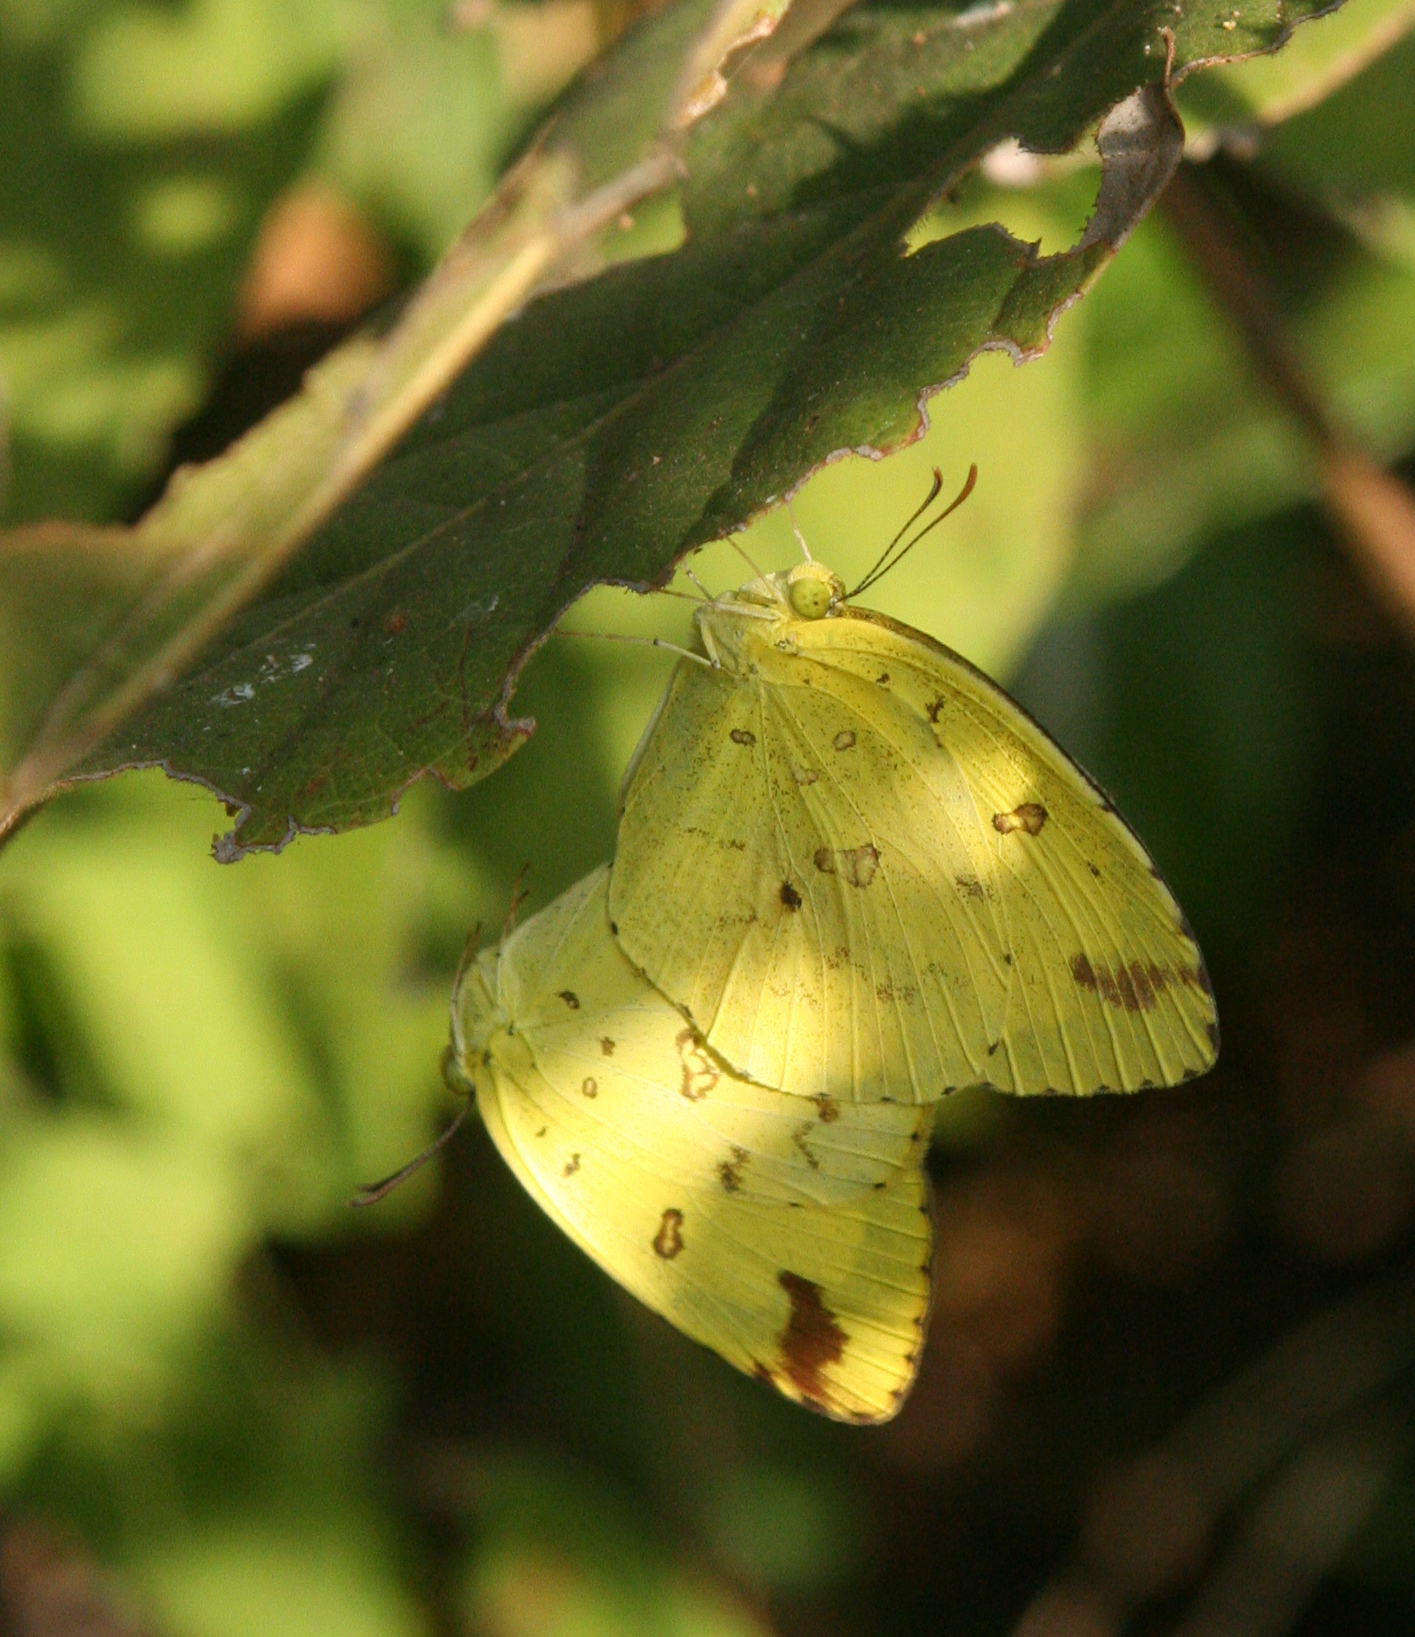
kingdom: Animalia
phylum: Arthropoda
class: Insecta
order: Lepidoptera
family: Pieridae
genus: Eurema
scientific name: Eurema hecabe
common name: Pale grass yellow
